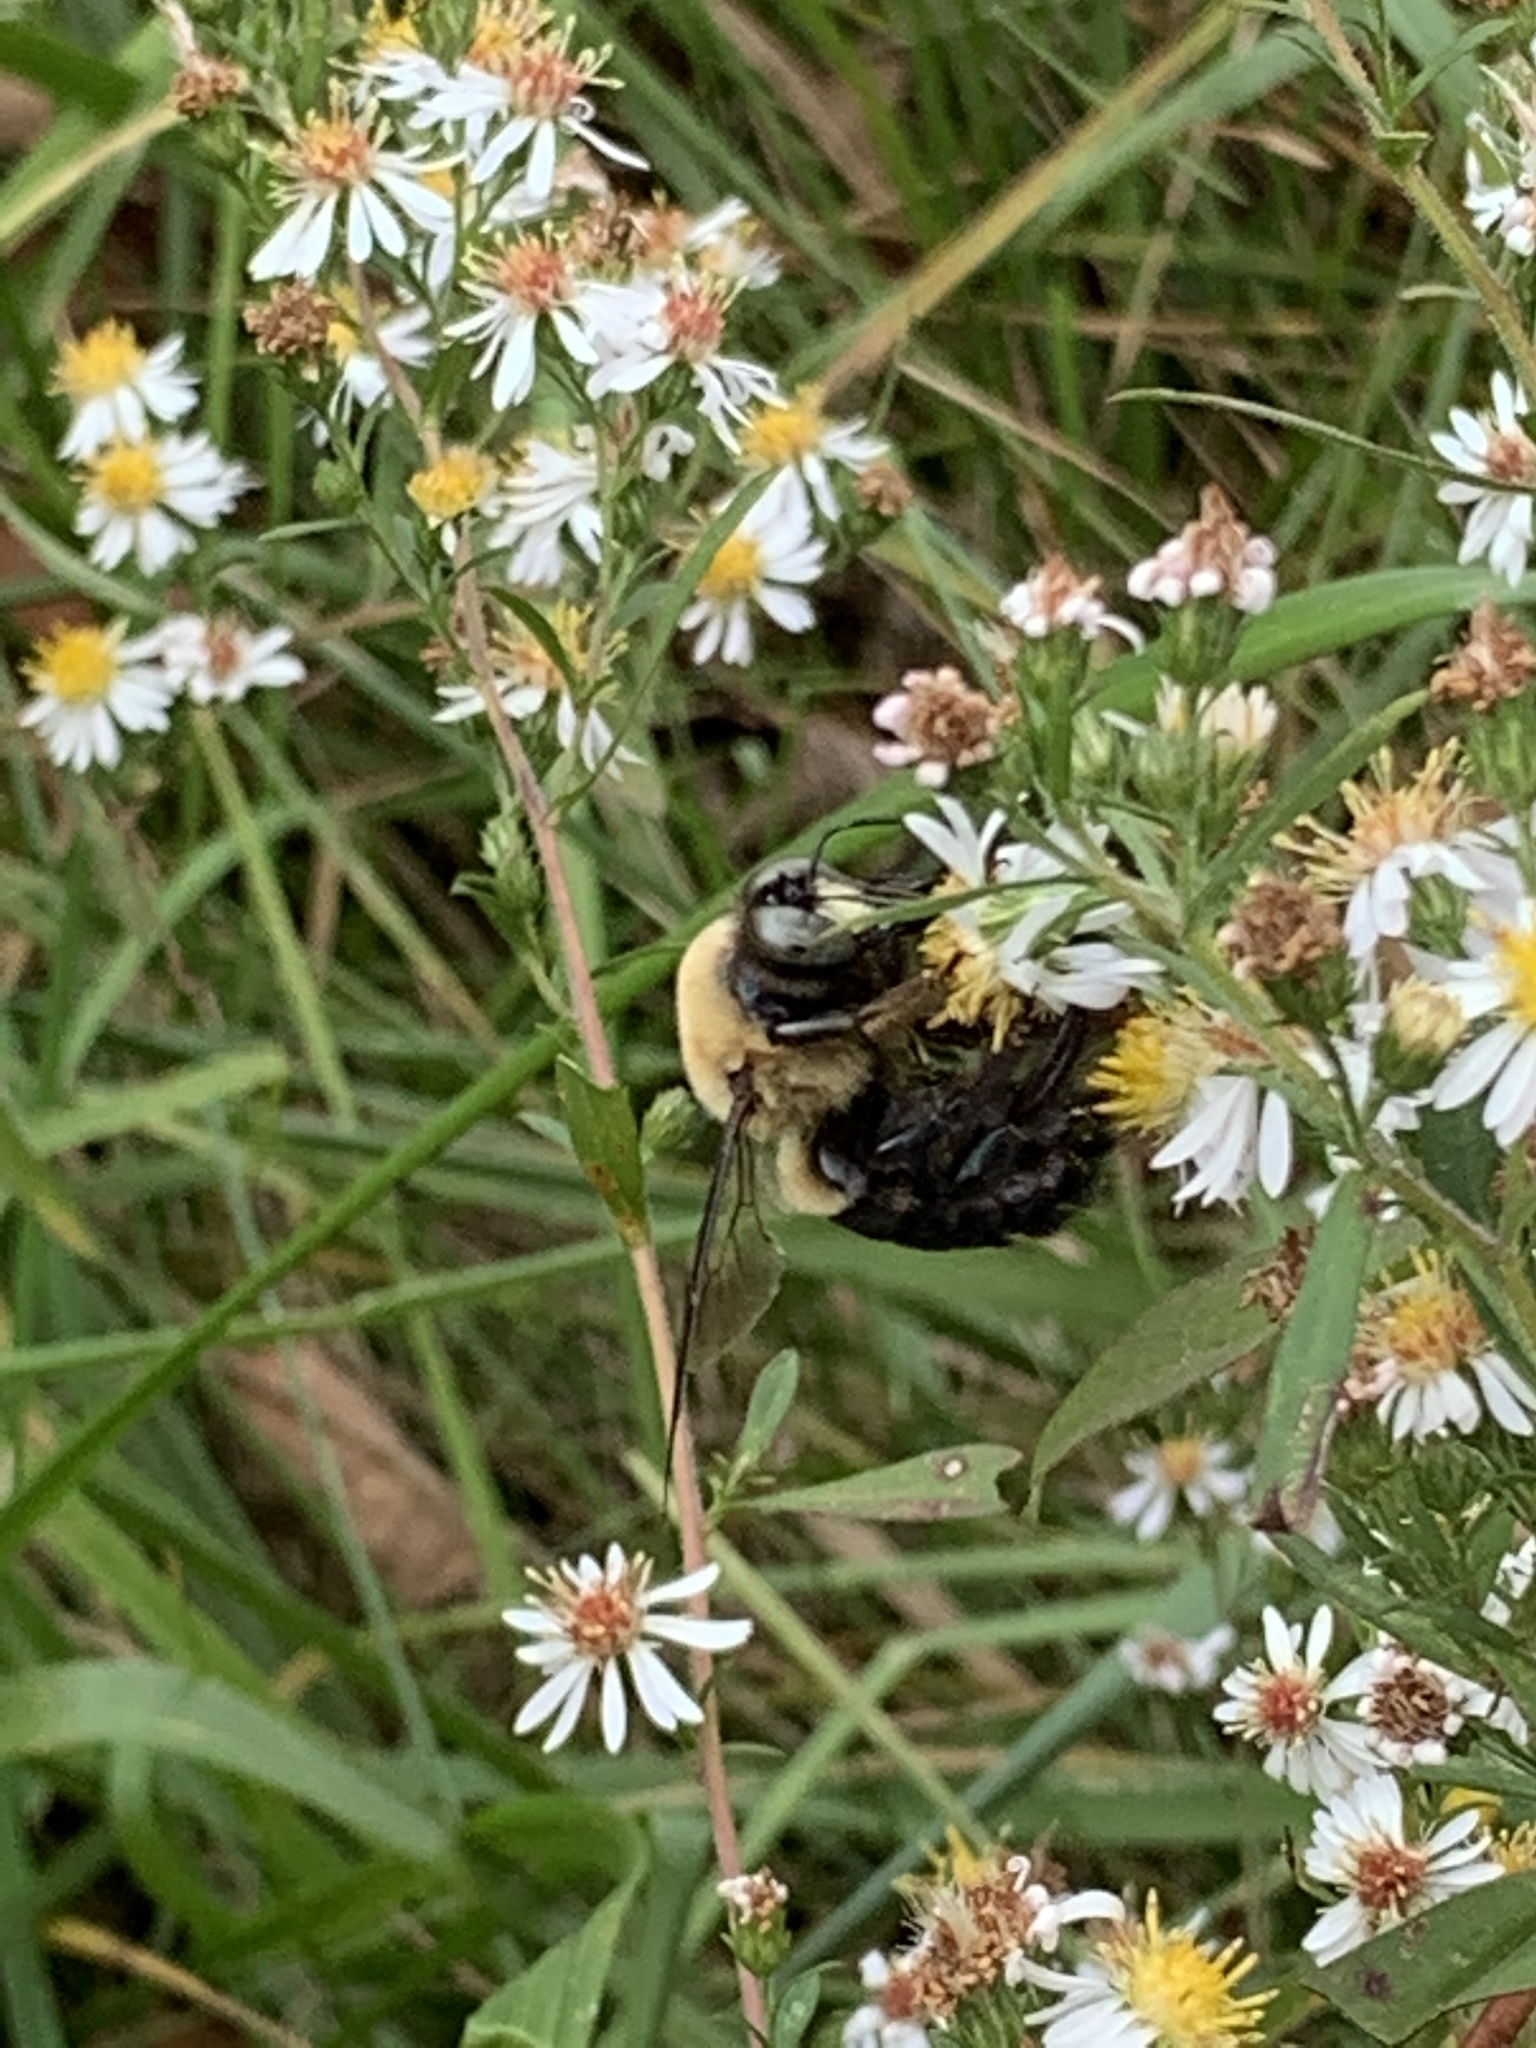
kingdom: Animalia
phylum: Arthropoda
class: Insecta
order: Hymenoptera
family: Apidae
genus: Xylocopa
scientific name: Xylocopa virginica
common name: Carpenter bee
